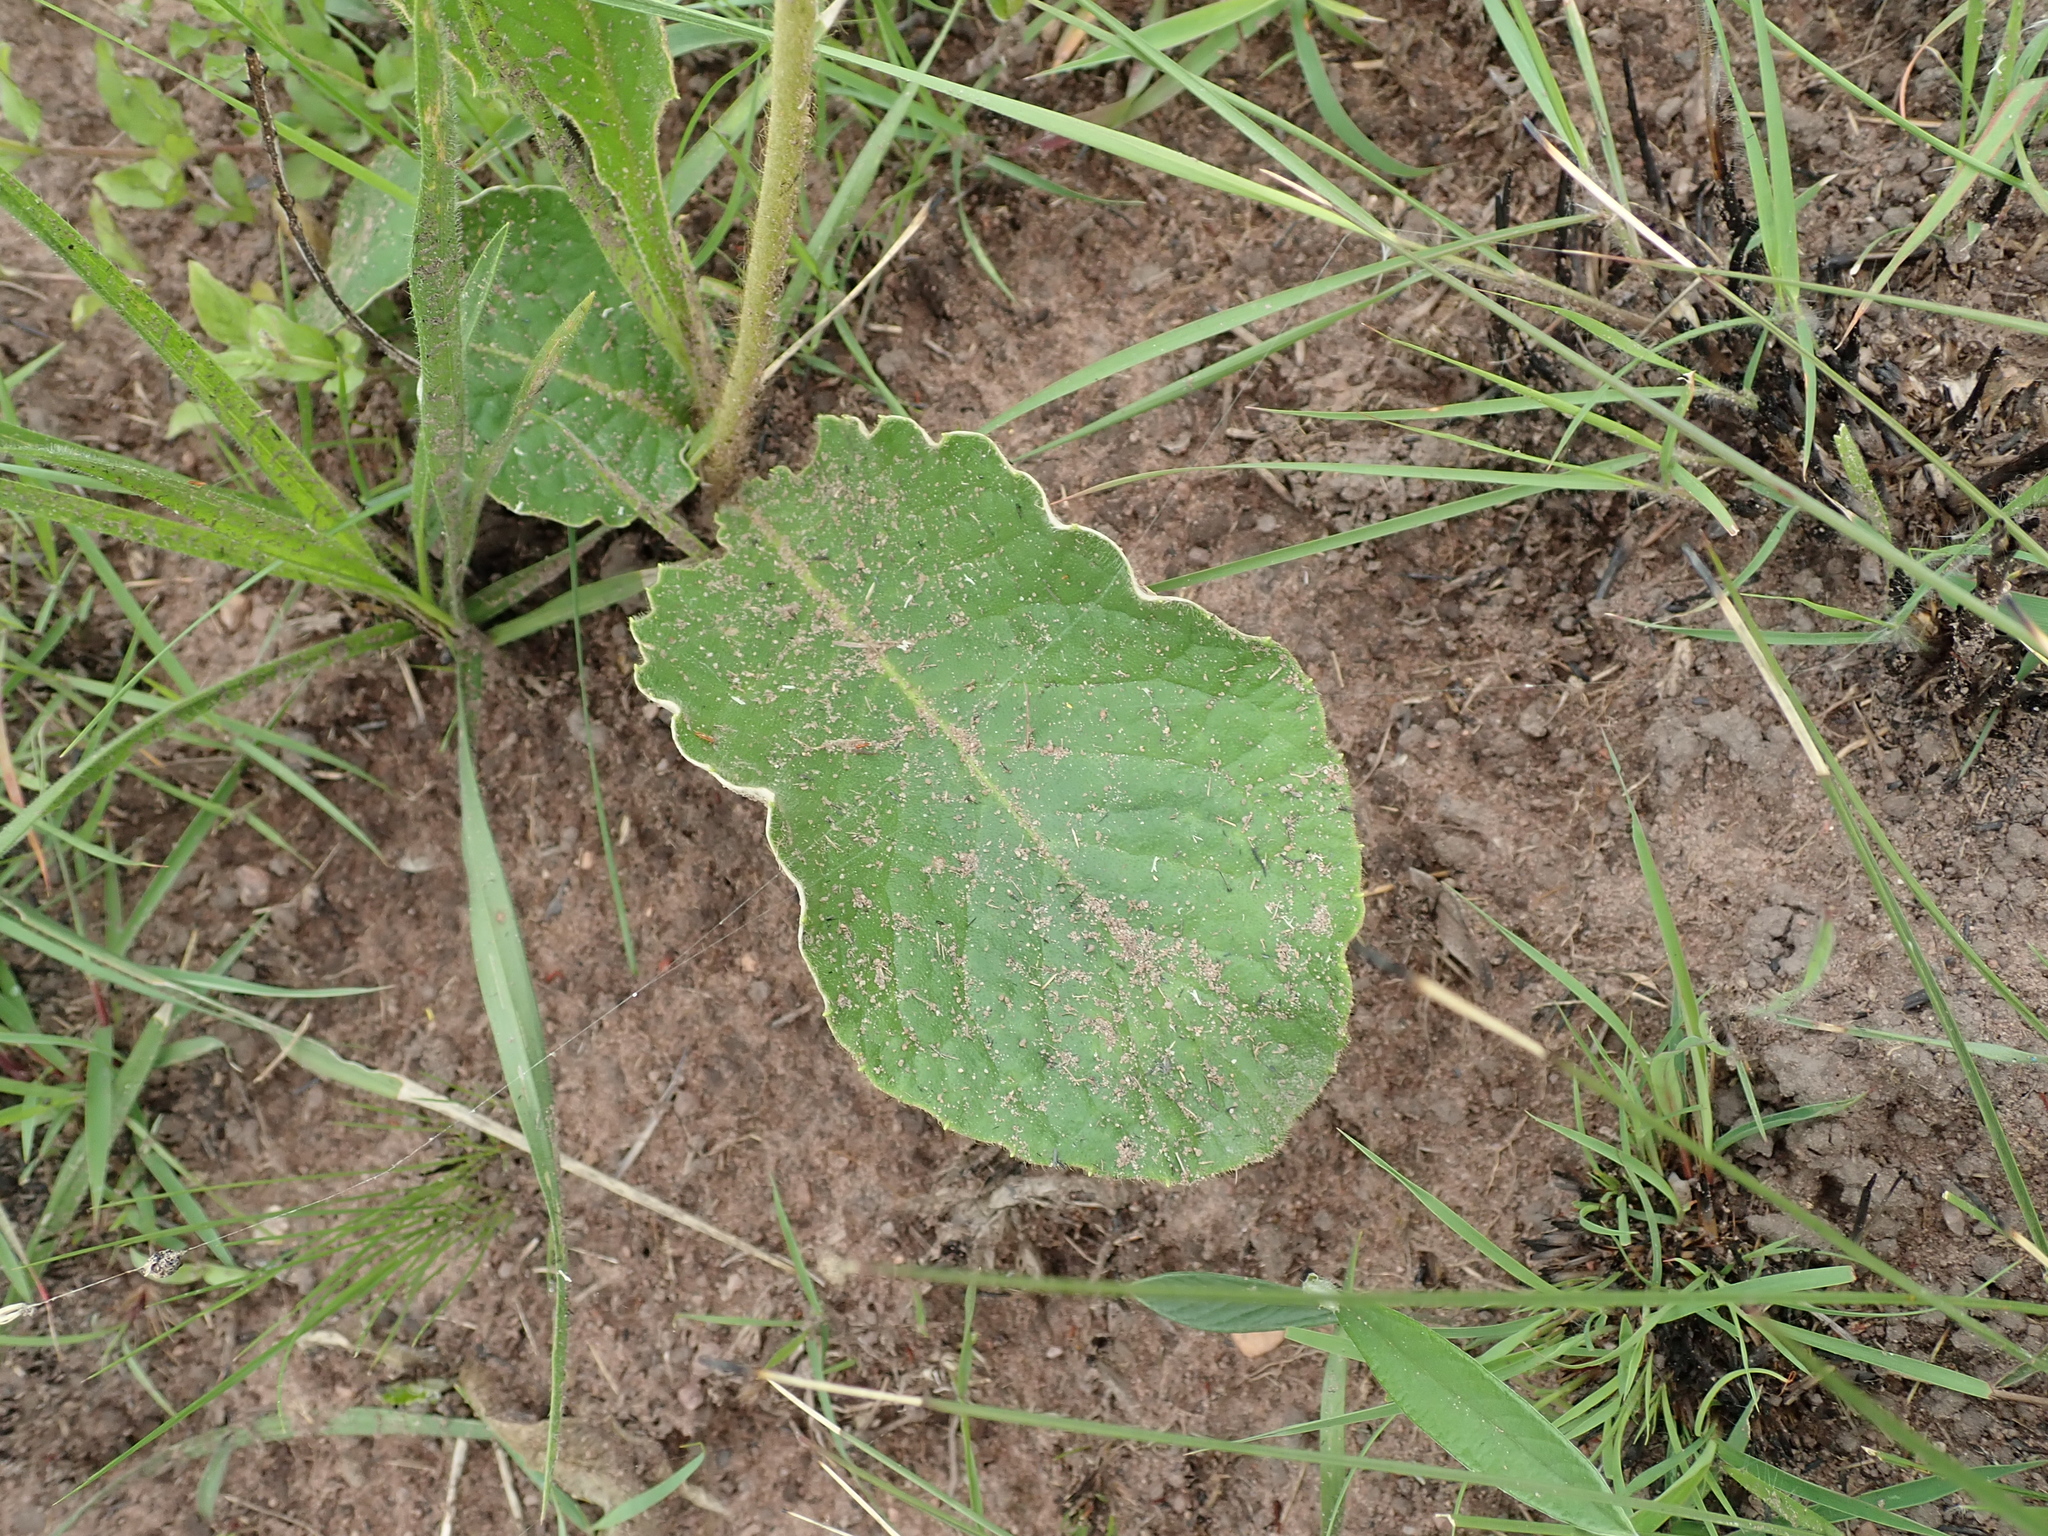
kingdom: Plantae
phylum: Tracheophyta
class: Magnoliopsida
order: Asterales
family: Asteraceae
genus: Gerbera
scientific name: Gerbera ambigua
